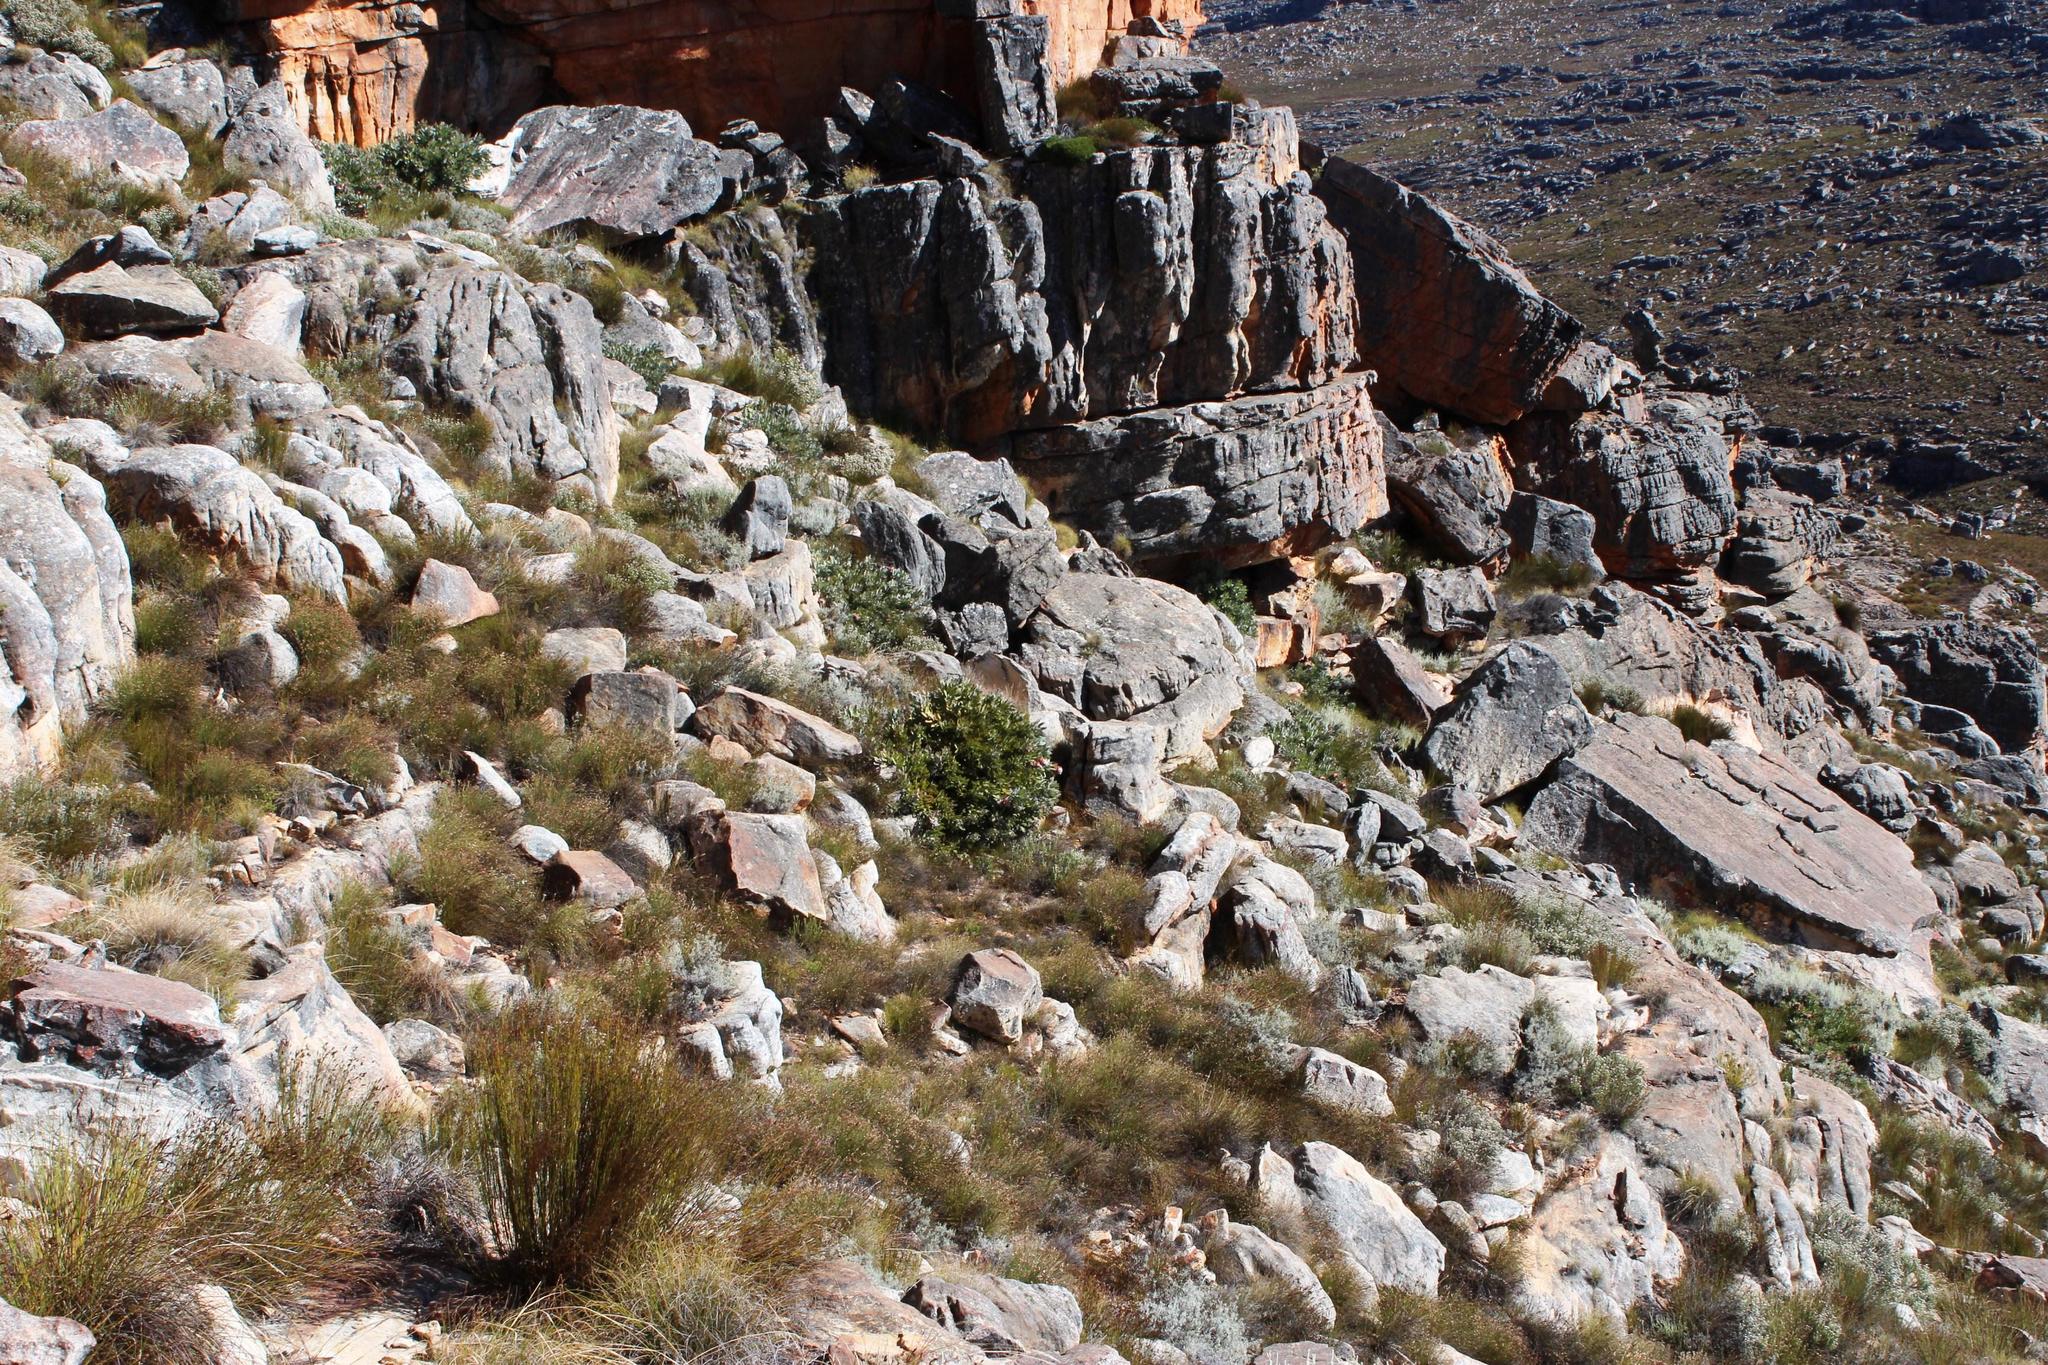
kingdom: Plantae
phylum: Tracheophyta
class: Magnoliopsida
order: Proteales
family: Proteaceae
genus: Protea
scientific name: Protea magnifica
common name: Bearded sugarbush
